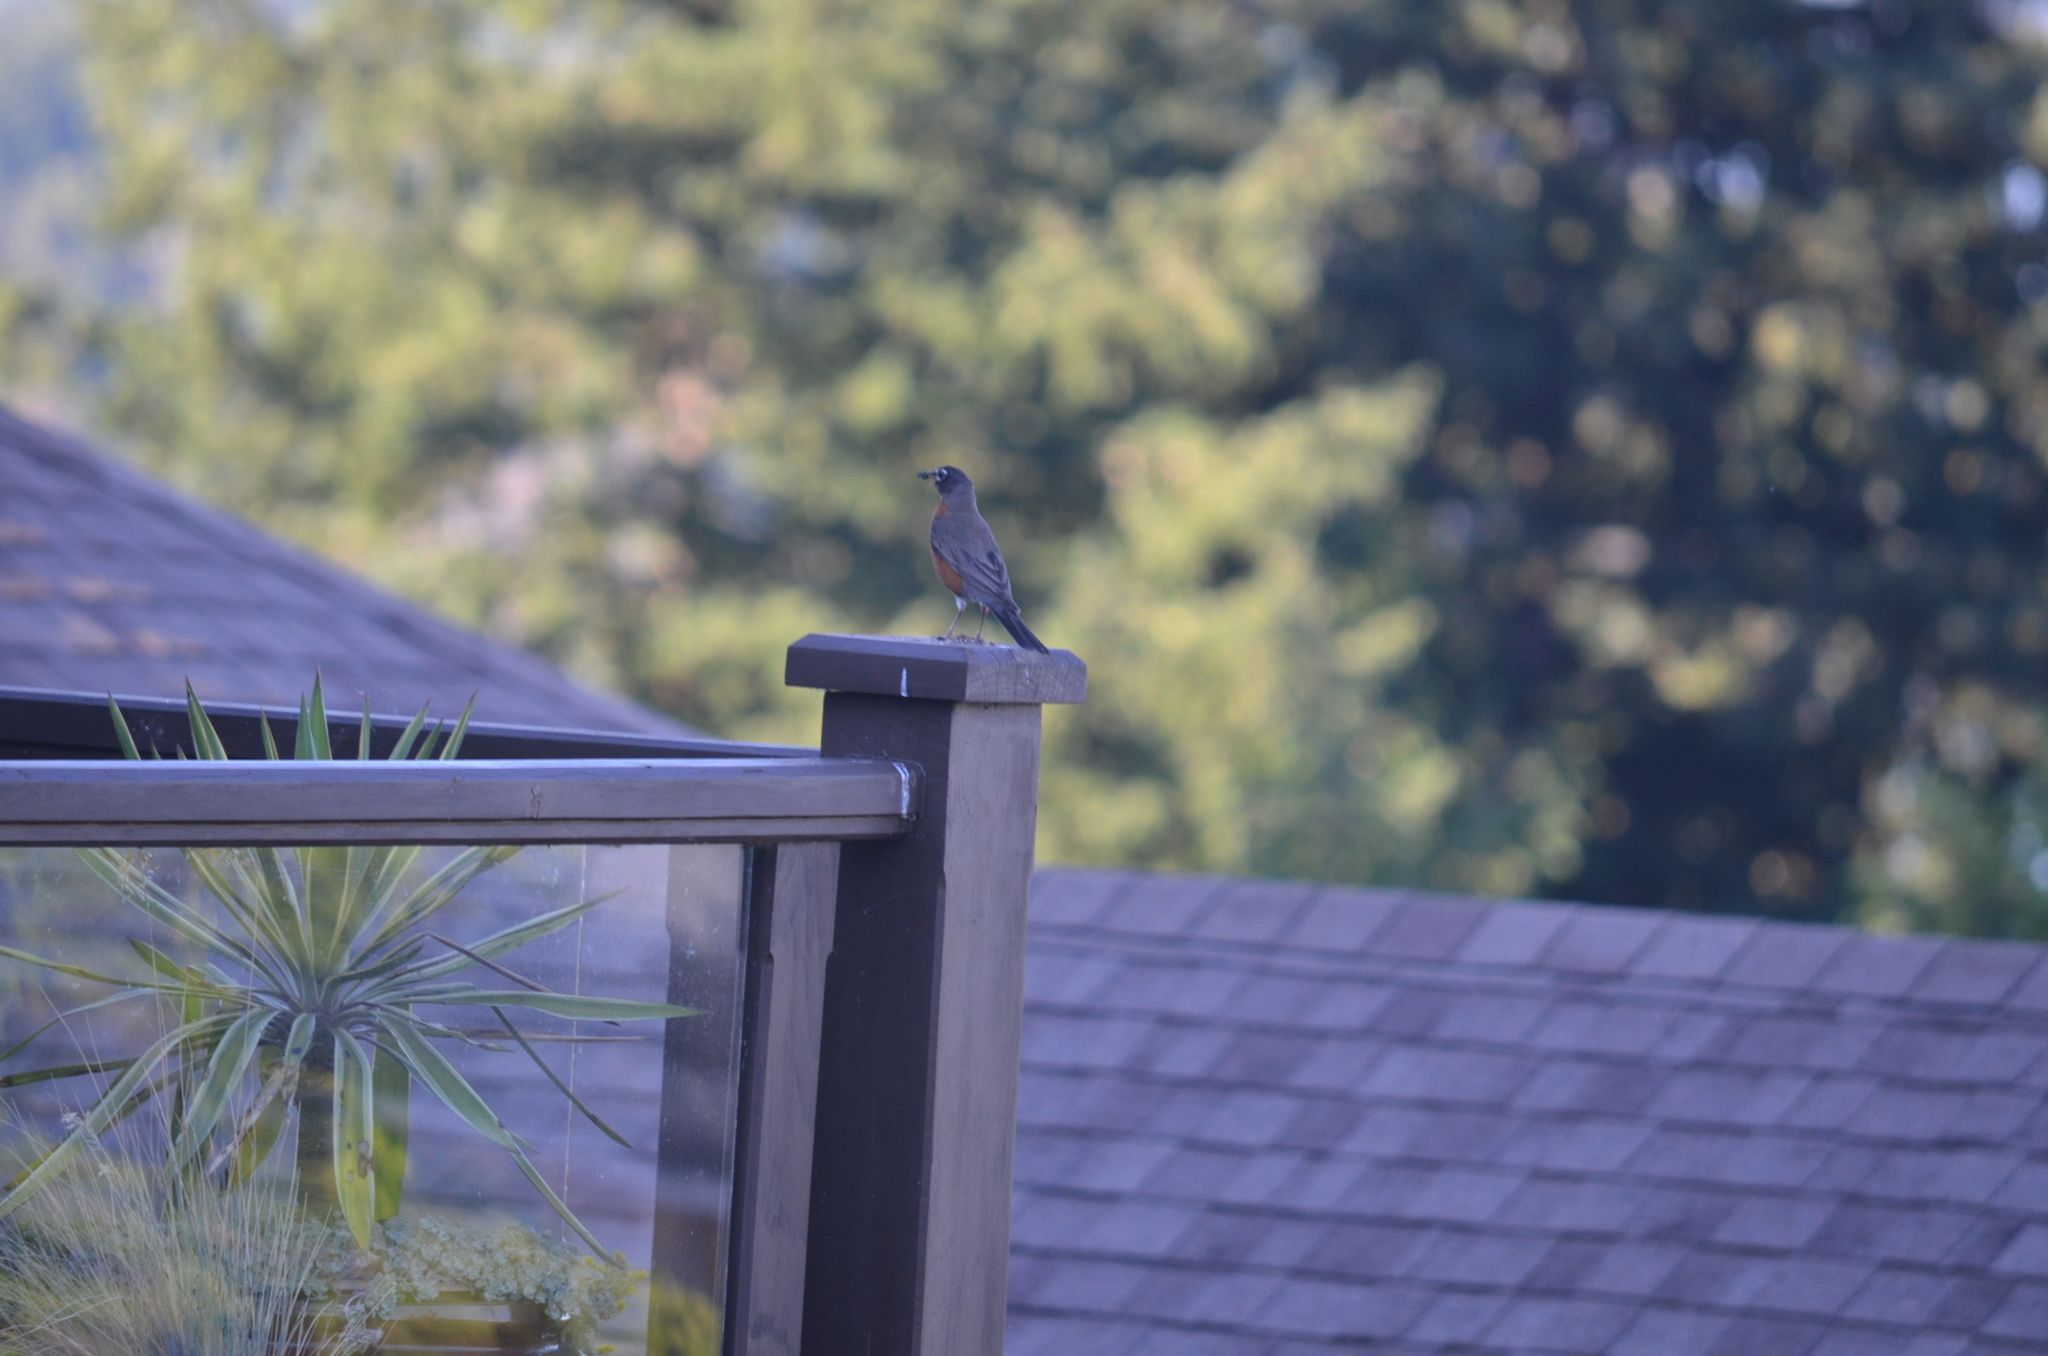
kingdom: Animalia
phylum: Chordata
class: Aves
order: Passeriformes
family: Turdidae
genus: Turdus
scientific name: Turdus migratorius
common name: American robin
